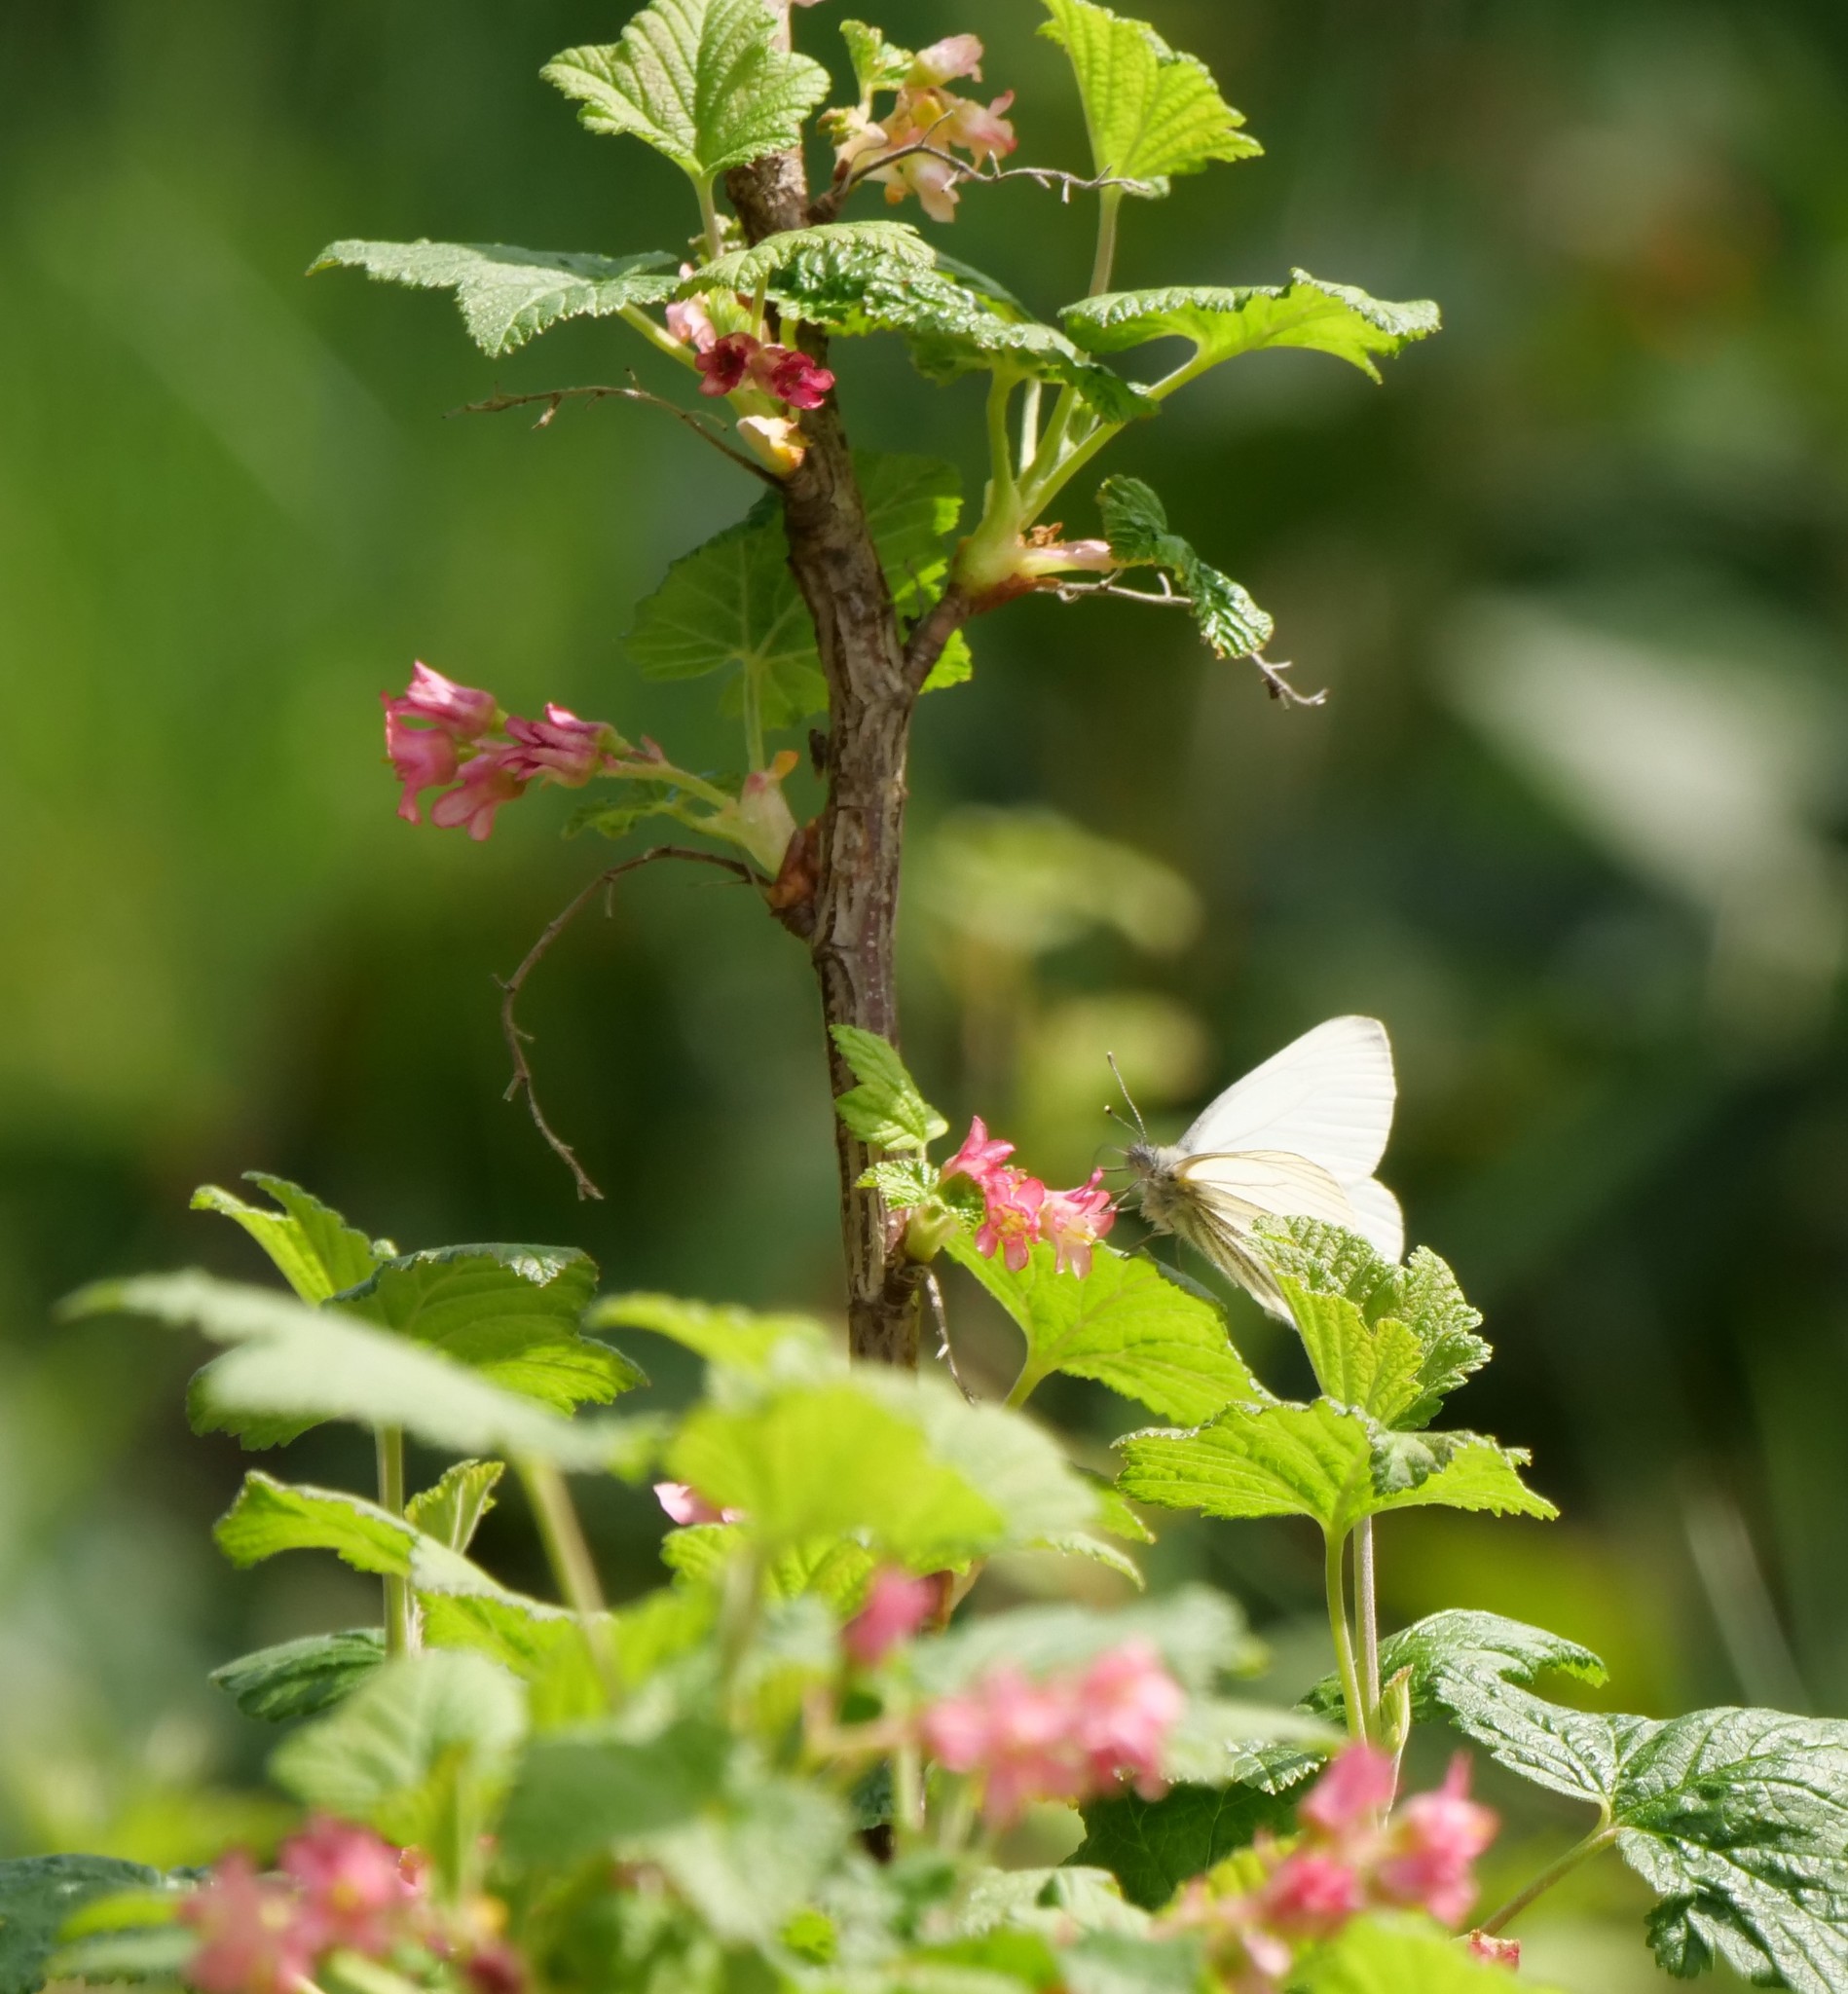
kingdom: Animalia
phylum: Arthropoda
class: Insecta
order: Lepidoptera
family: Pieridae
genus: Pieris
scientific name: Pieris marginalis
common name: Margined white
